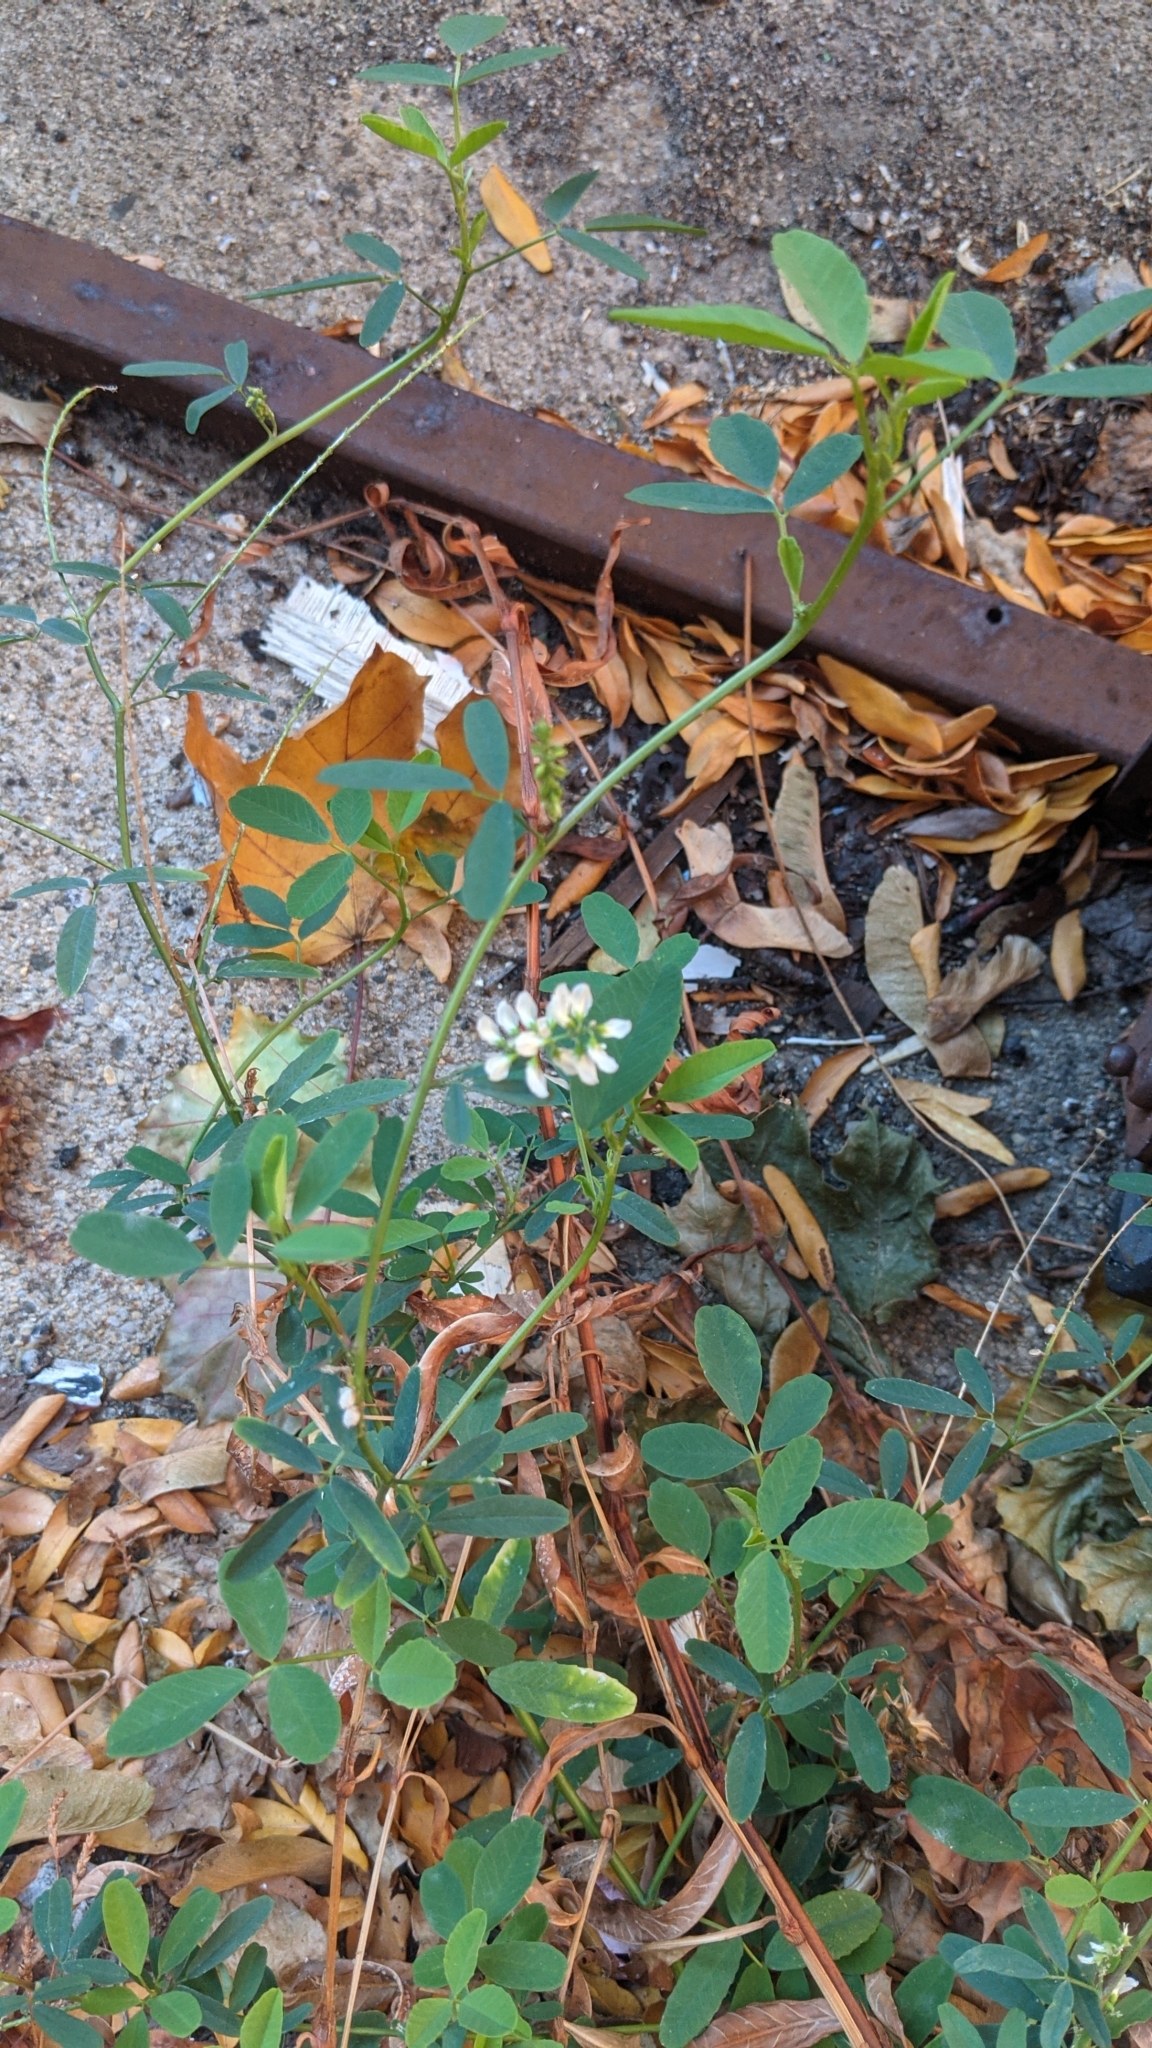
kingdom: Plantae
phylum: Tracheophyta
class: Magnoliopsida
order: Fabales
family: Fabaceae
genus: Melilotus
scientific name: Melilotus albus
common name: White melilot
